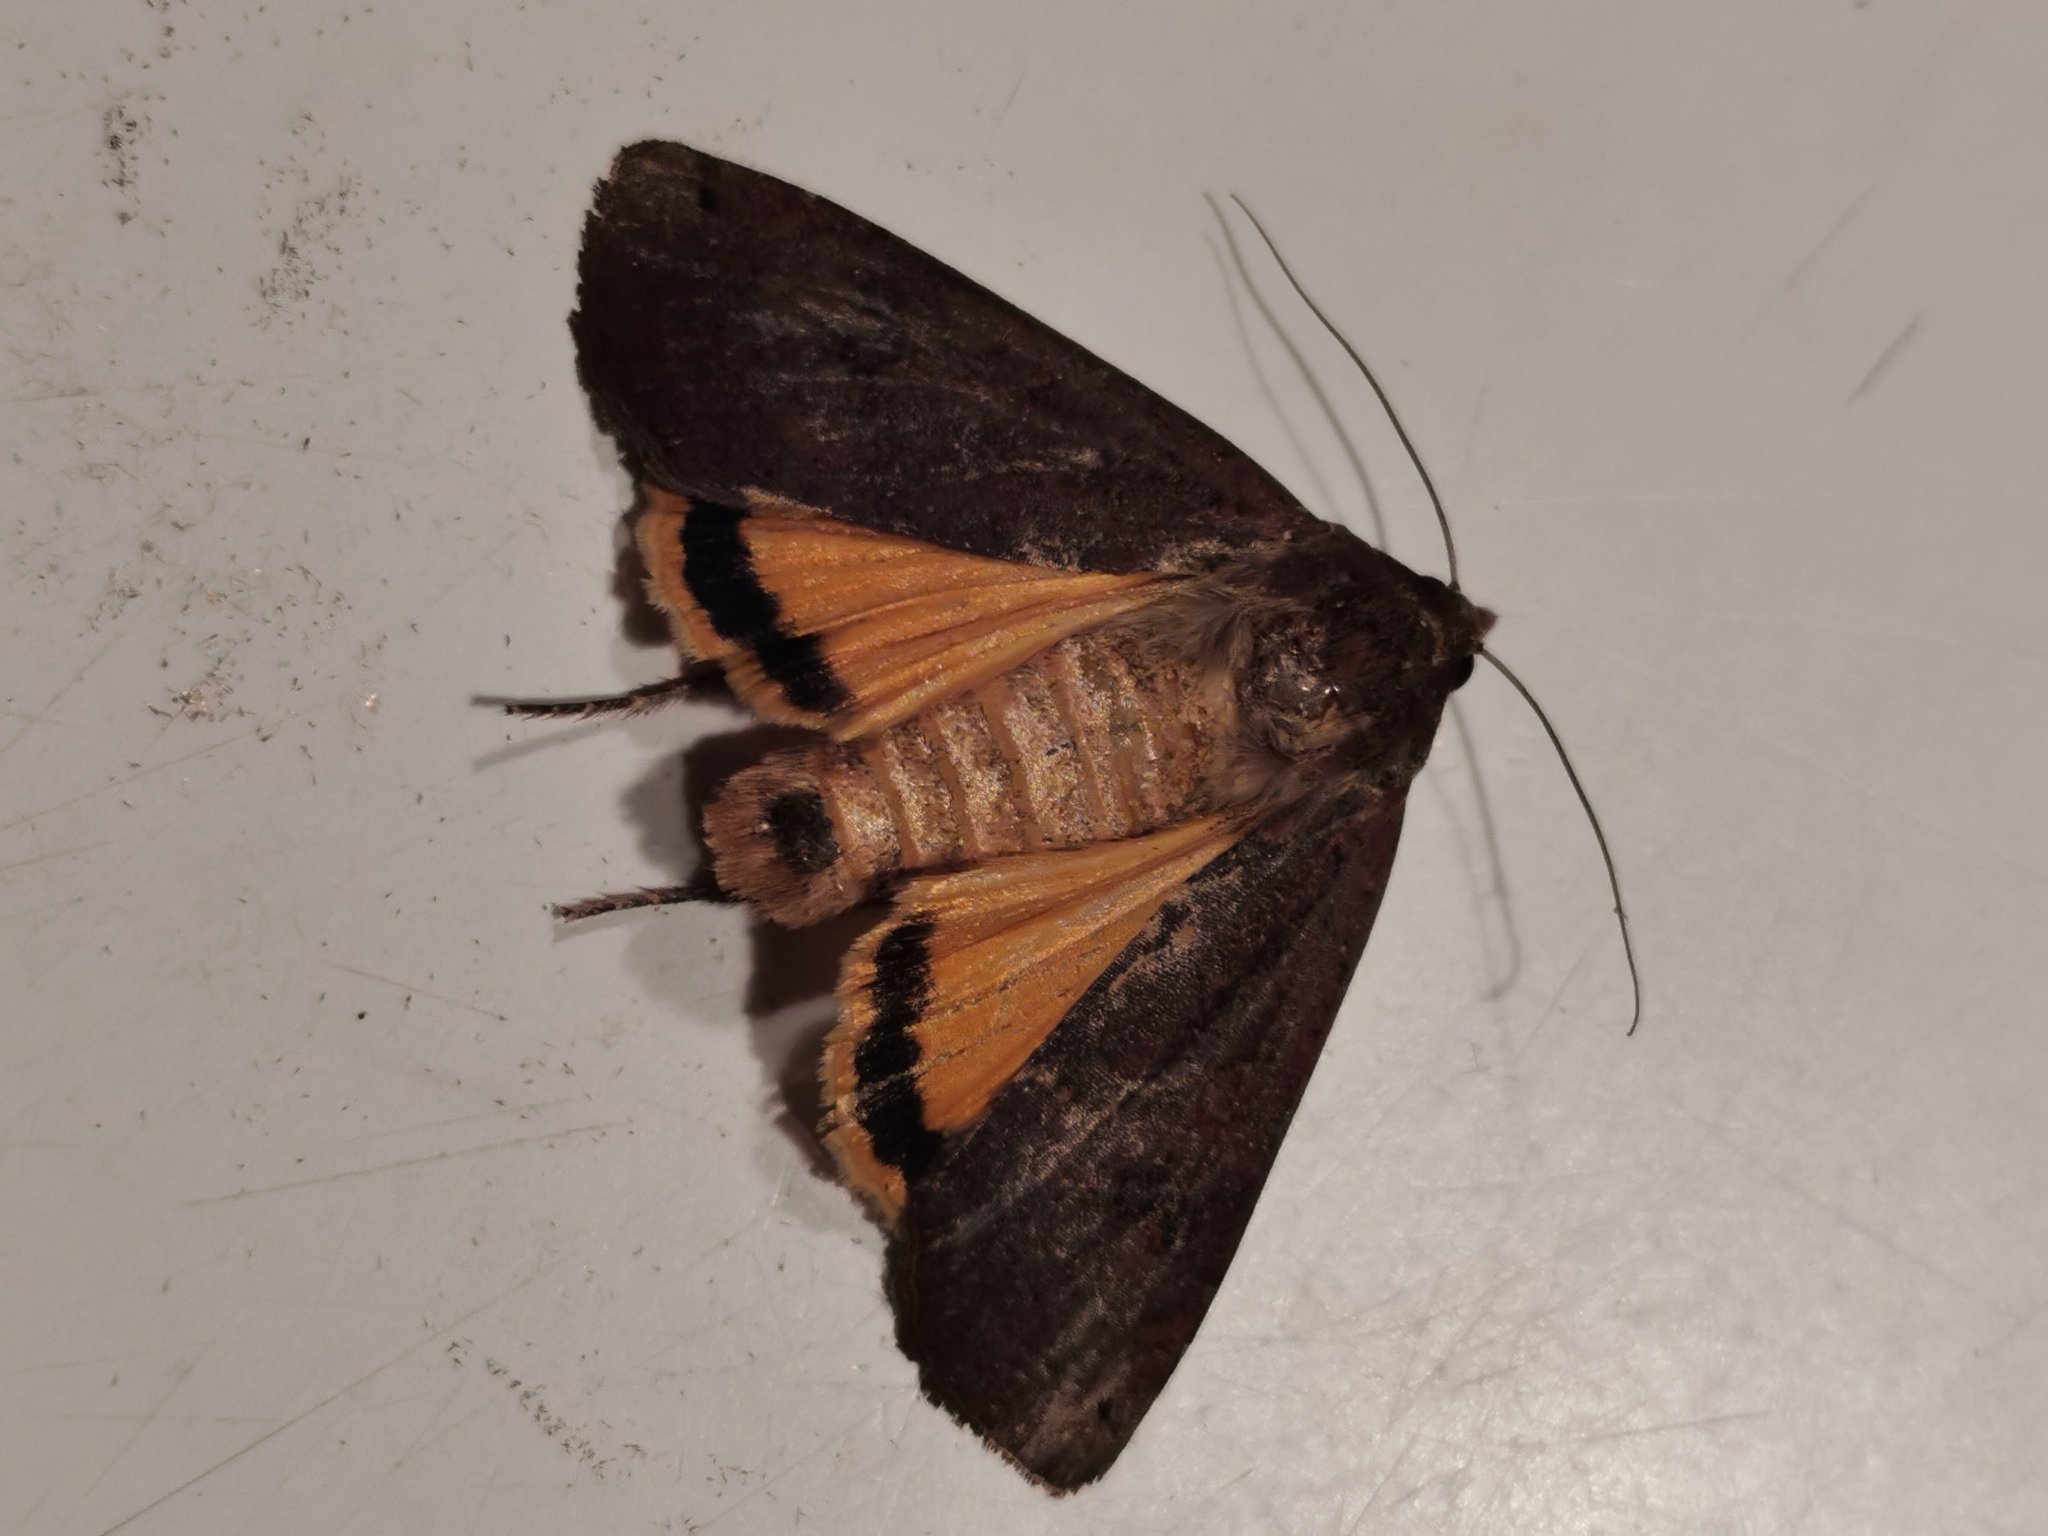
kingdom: Animalia
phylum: Arthropoda
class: Insecta
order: Lepidoptera
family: Noctuidae
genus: Noctua
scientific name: Noctua pronuba
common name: Large yellow underwing
